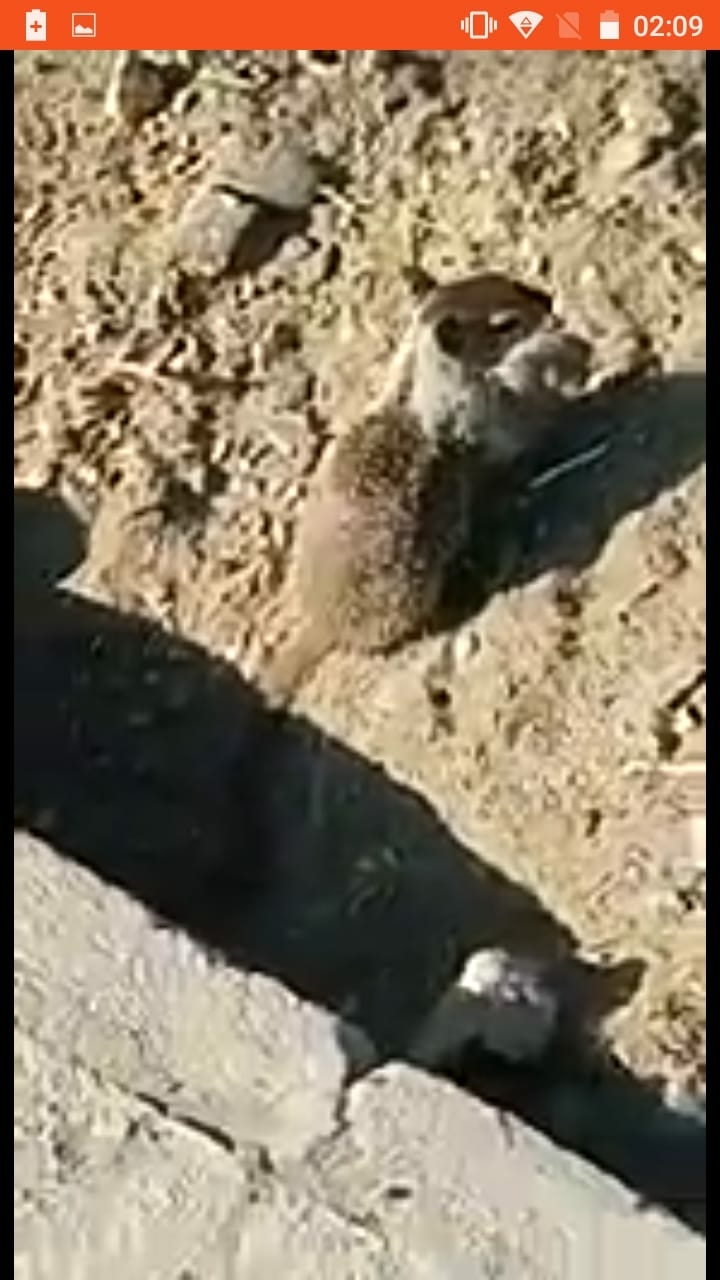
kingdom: Animalia
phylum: Chordata
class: Mammalia
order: Rodentia
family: Sciuridae
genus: Otospermophilus
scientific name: Otospermophilus beecheyi
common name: California ground squirrel
